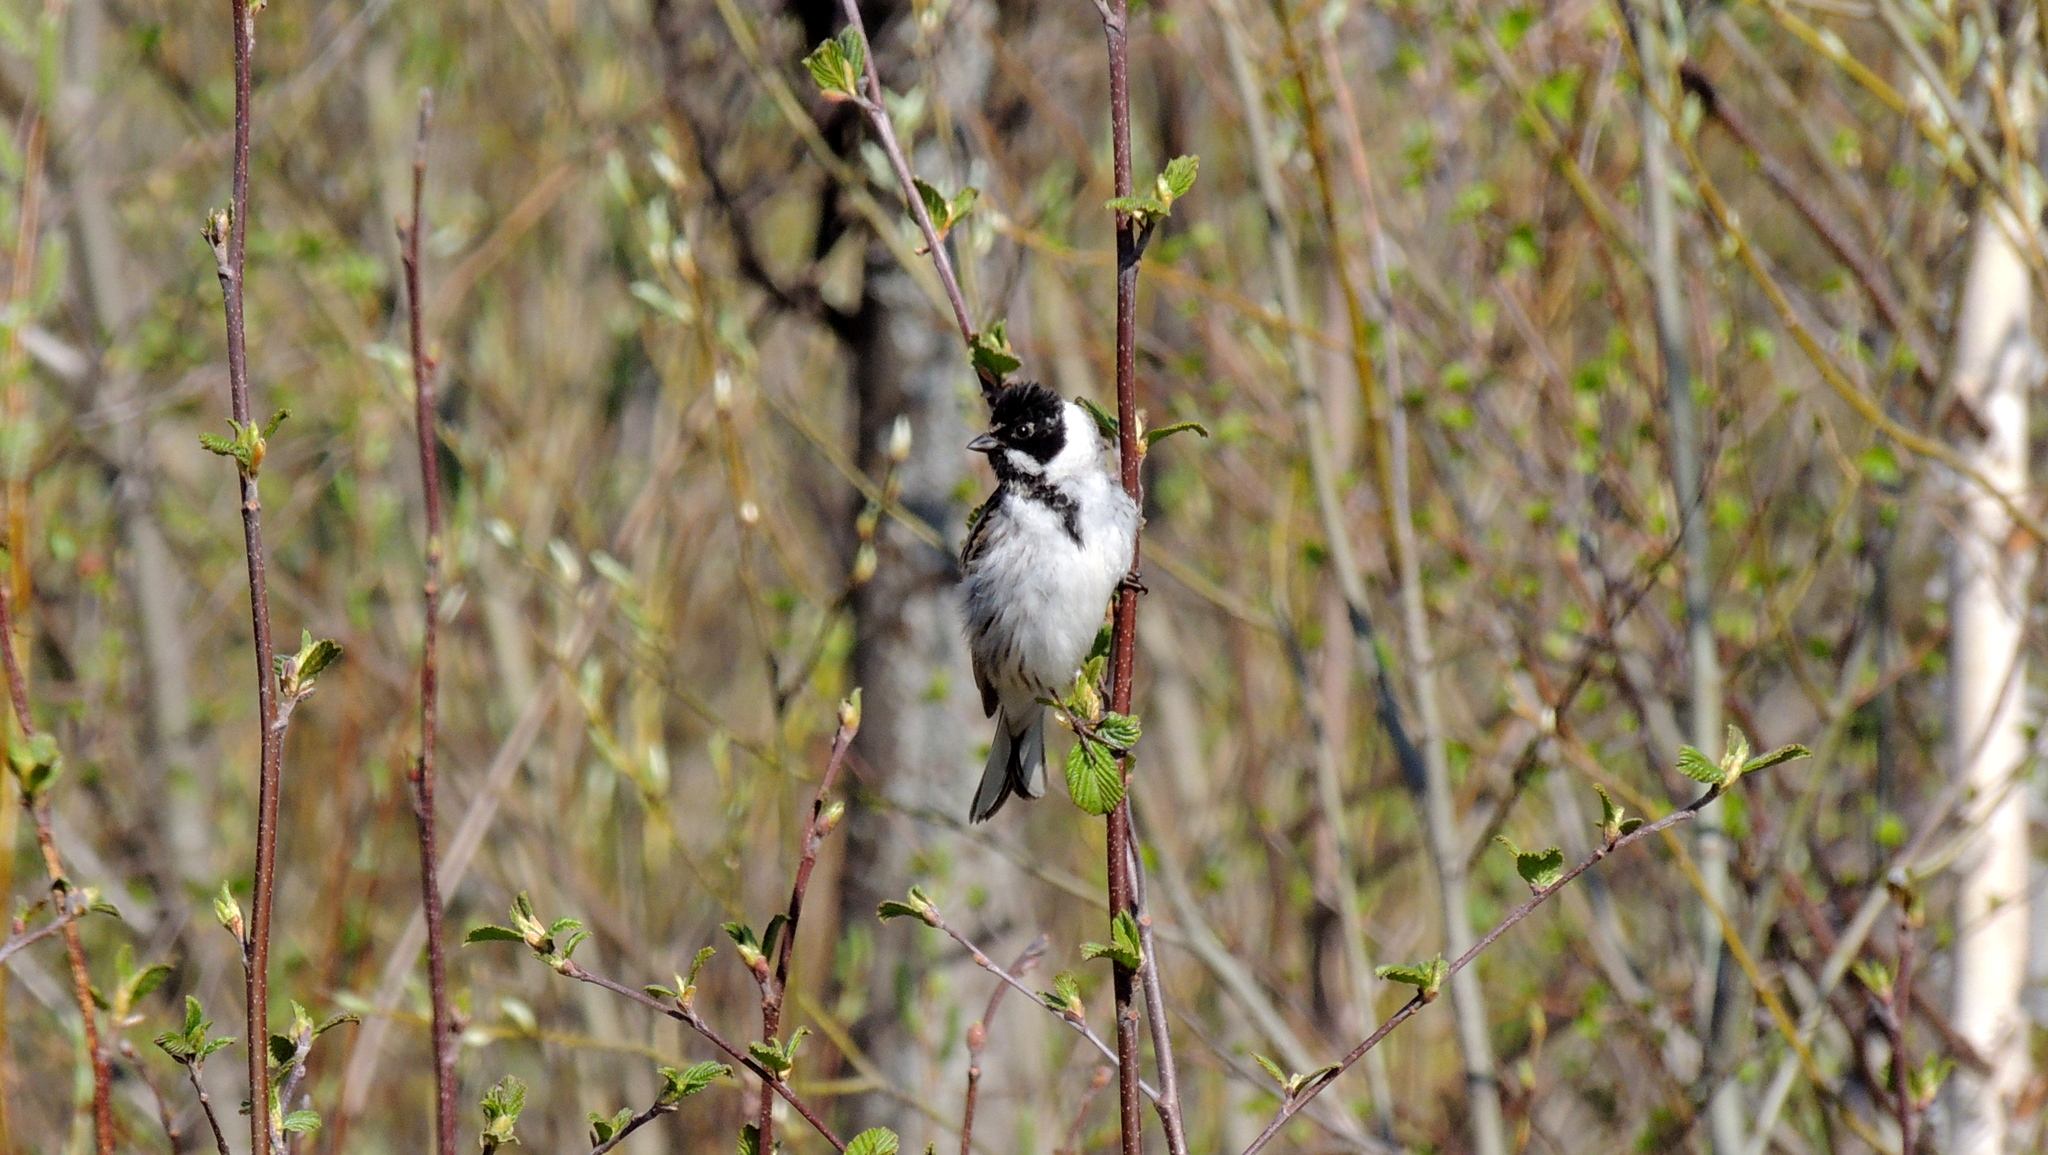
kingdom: Animalia
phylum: Chordata
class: Aves
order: Passeriformes
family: Emberizidae
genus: Emberiza
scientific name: Emberiza schoeniclus
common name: Reed bunting
